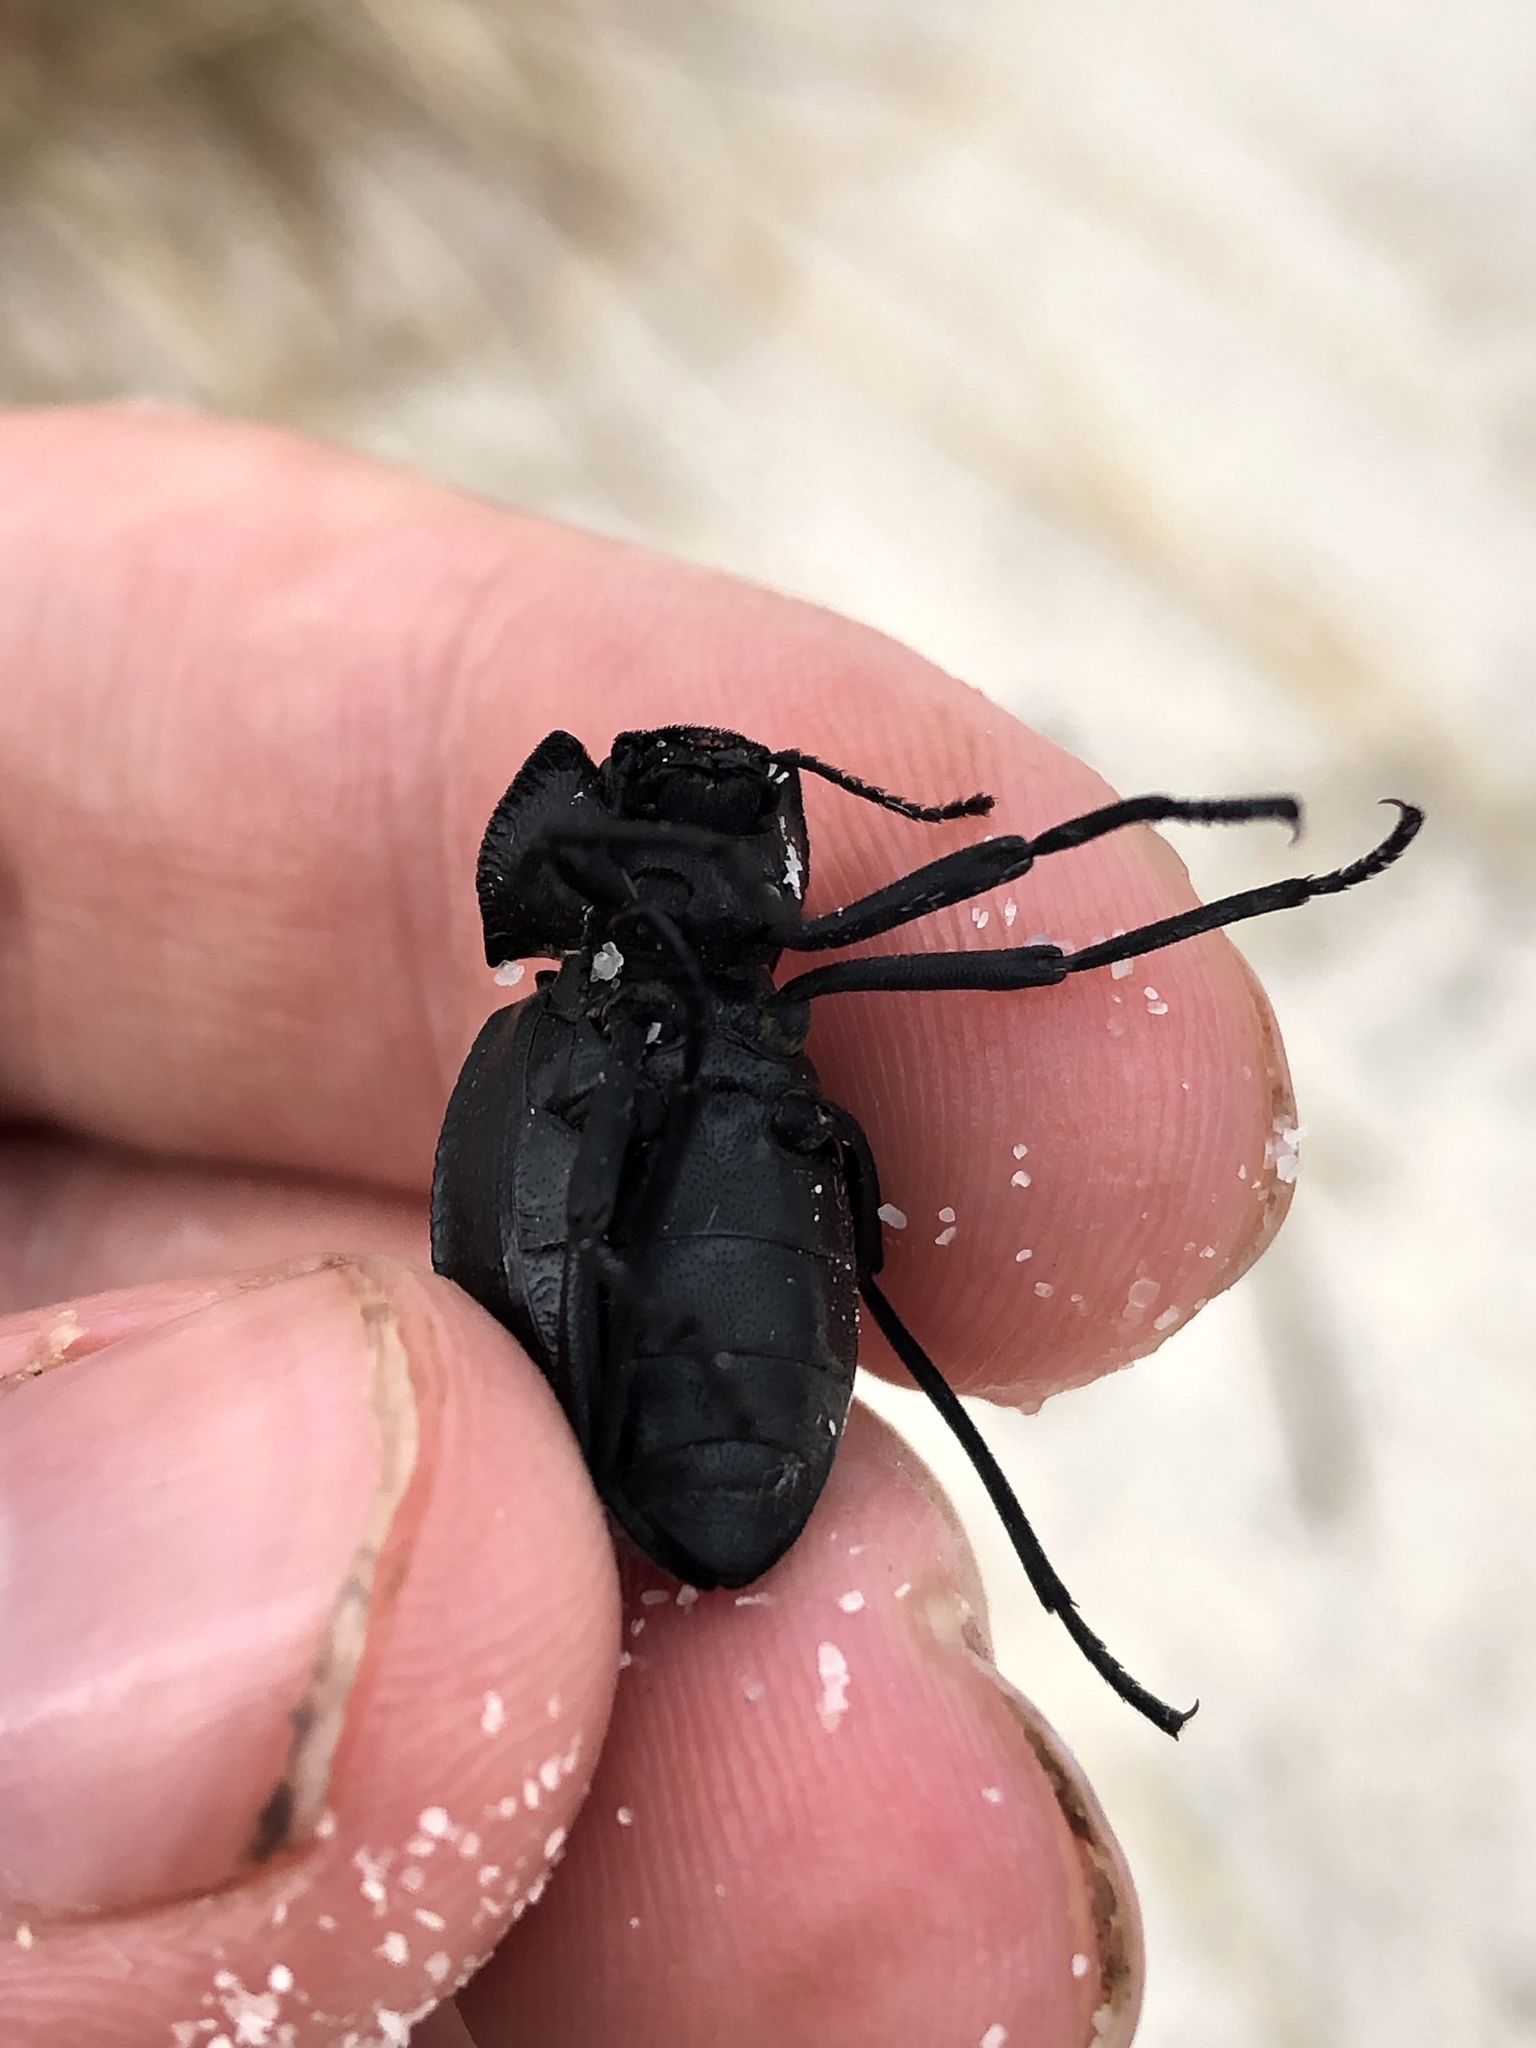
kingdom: Animalia
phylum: Arthropoda
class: Insecta
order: Coleoptera
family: Tenebrionidae
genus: Philolithus
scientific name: Philolithus
